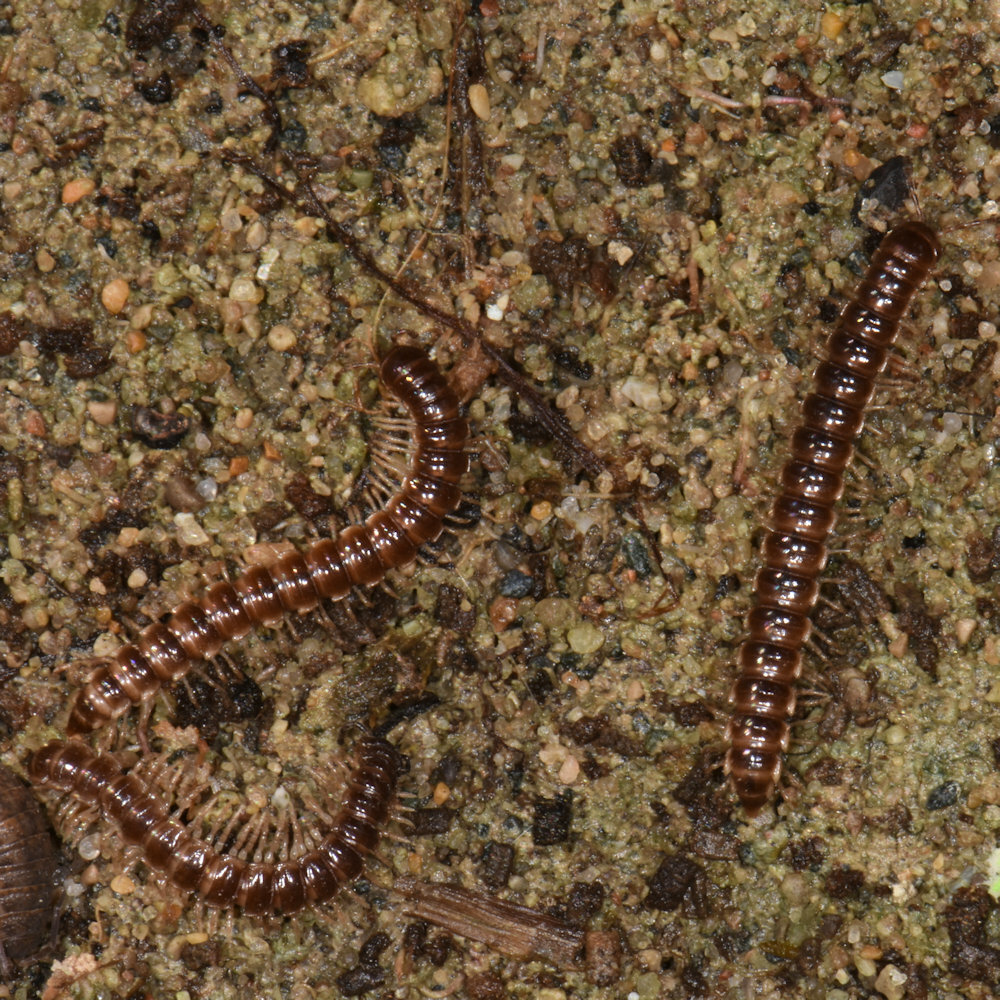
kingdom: Animalia
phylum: Arthropoda
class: Diplopoda
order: Polydesmida
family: Paradoxosomatidae
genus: Oxidus
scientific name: Oxidus gracilis
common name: Greenhouse millipede
